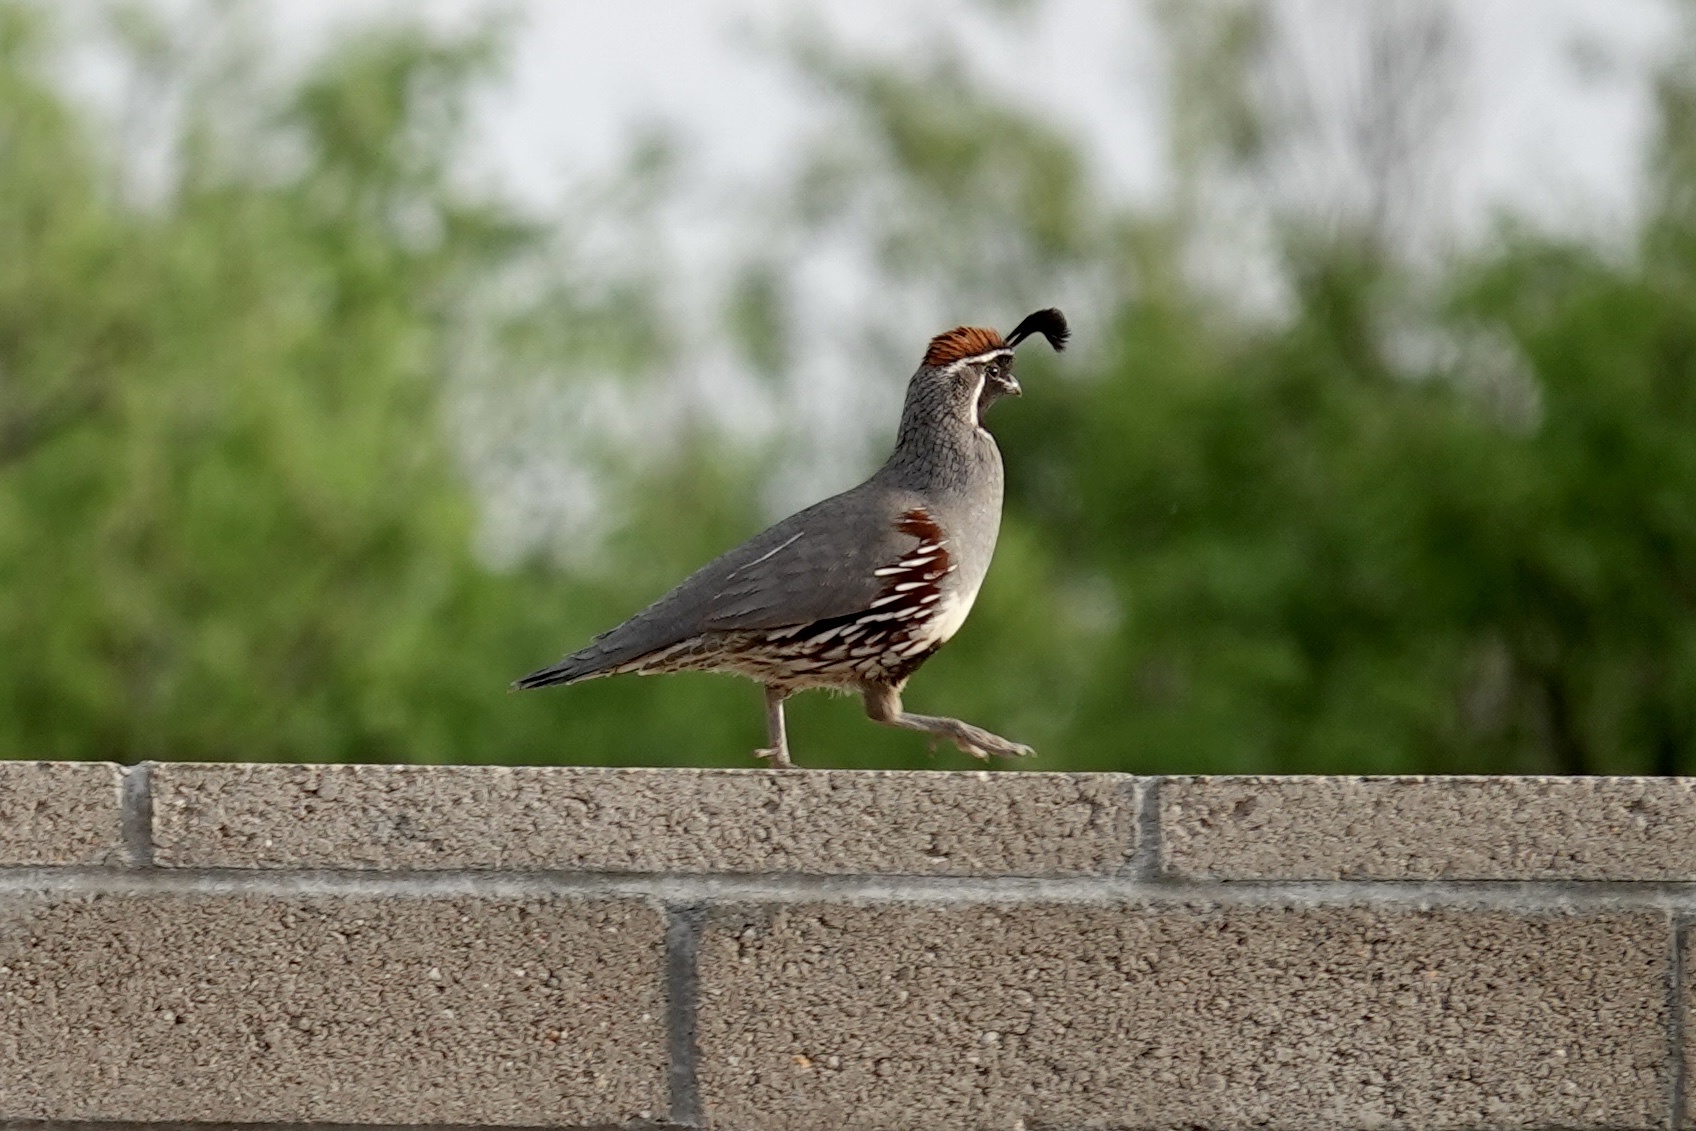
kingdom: Animalia
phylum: Chordata
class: Aves
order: Galliformes
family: Odontophoridae
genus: Callipepla
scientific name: Callipepla gambelii
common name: Gambel's quail
